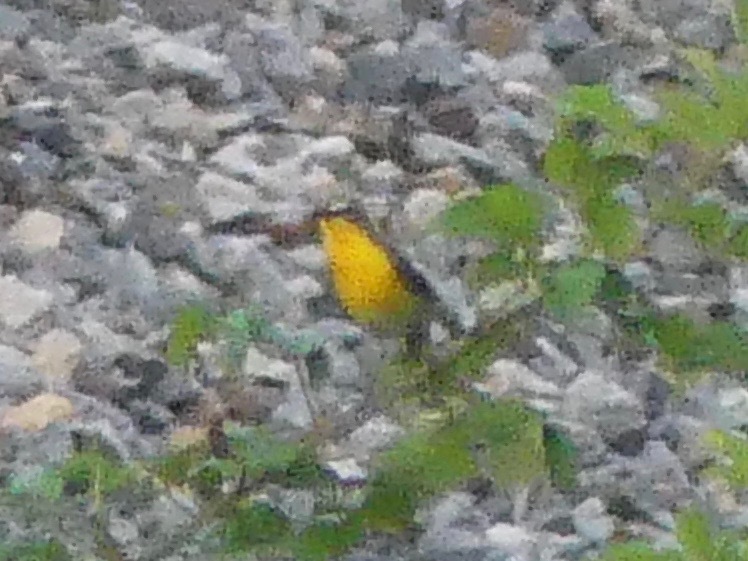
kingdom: Animalia
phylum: Chordata
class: Aves
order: Passeriformes
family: Parulidae
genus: Icteria
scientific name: Icteria virens
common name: Yellow-breasted chat
